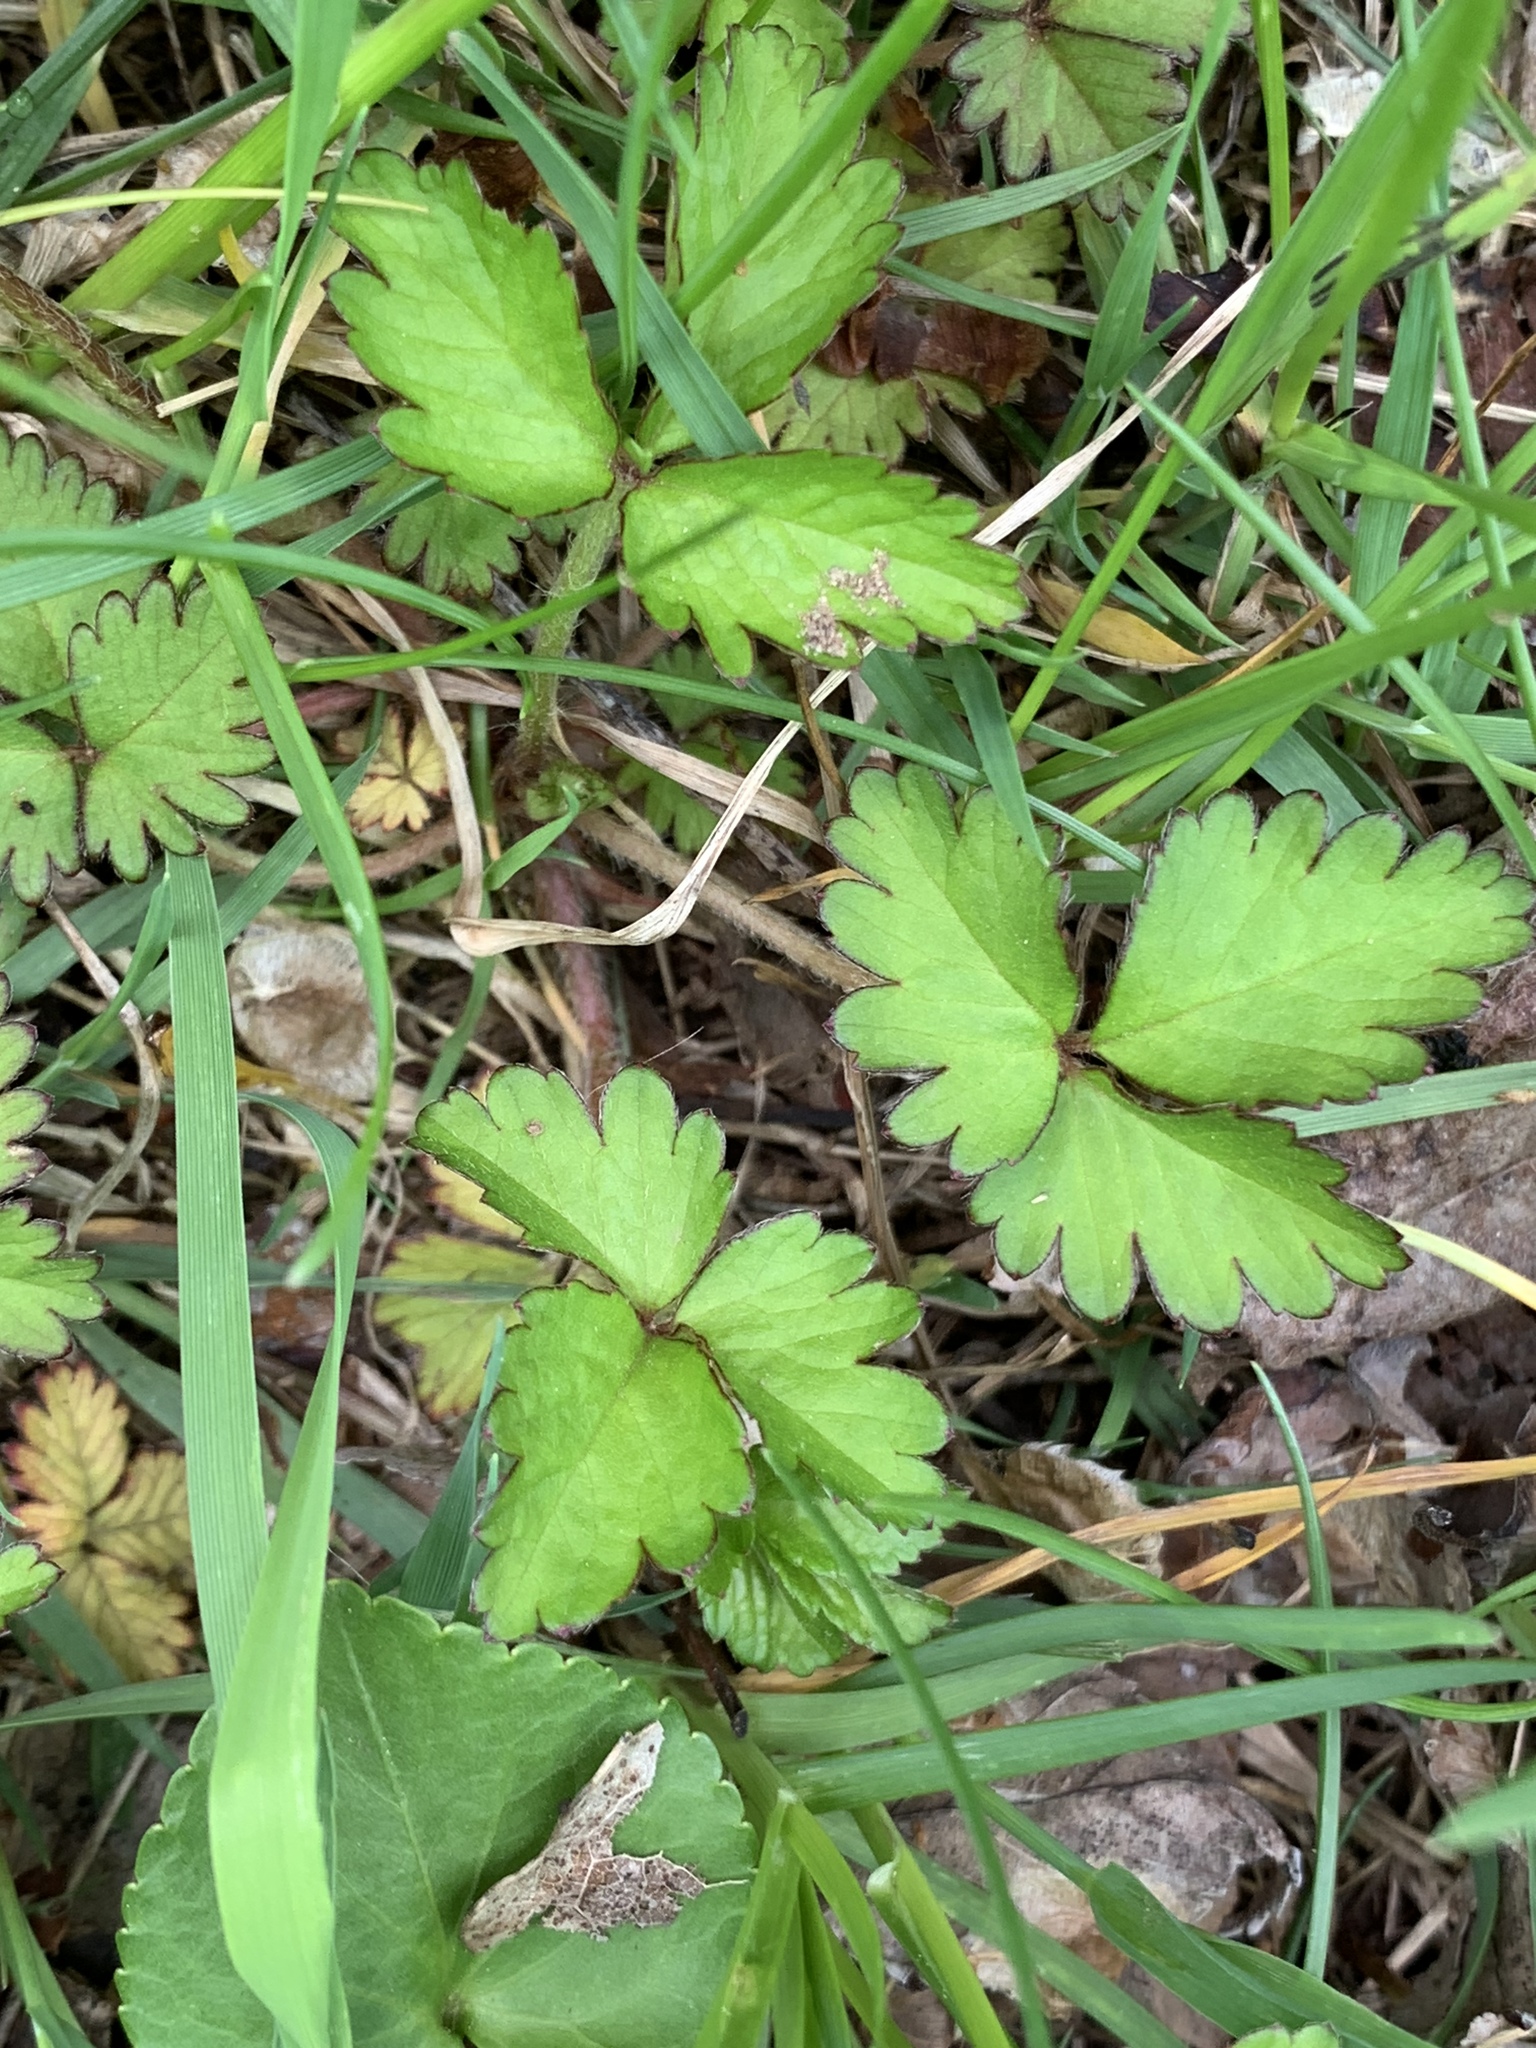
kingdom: Plantae
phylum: Tracheophyta
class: Magnoliopsida
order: Rosales
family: Rosaceae
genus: Potentilla
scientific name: Potentilla indica
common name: Yellow-flowered strawberry
